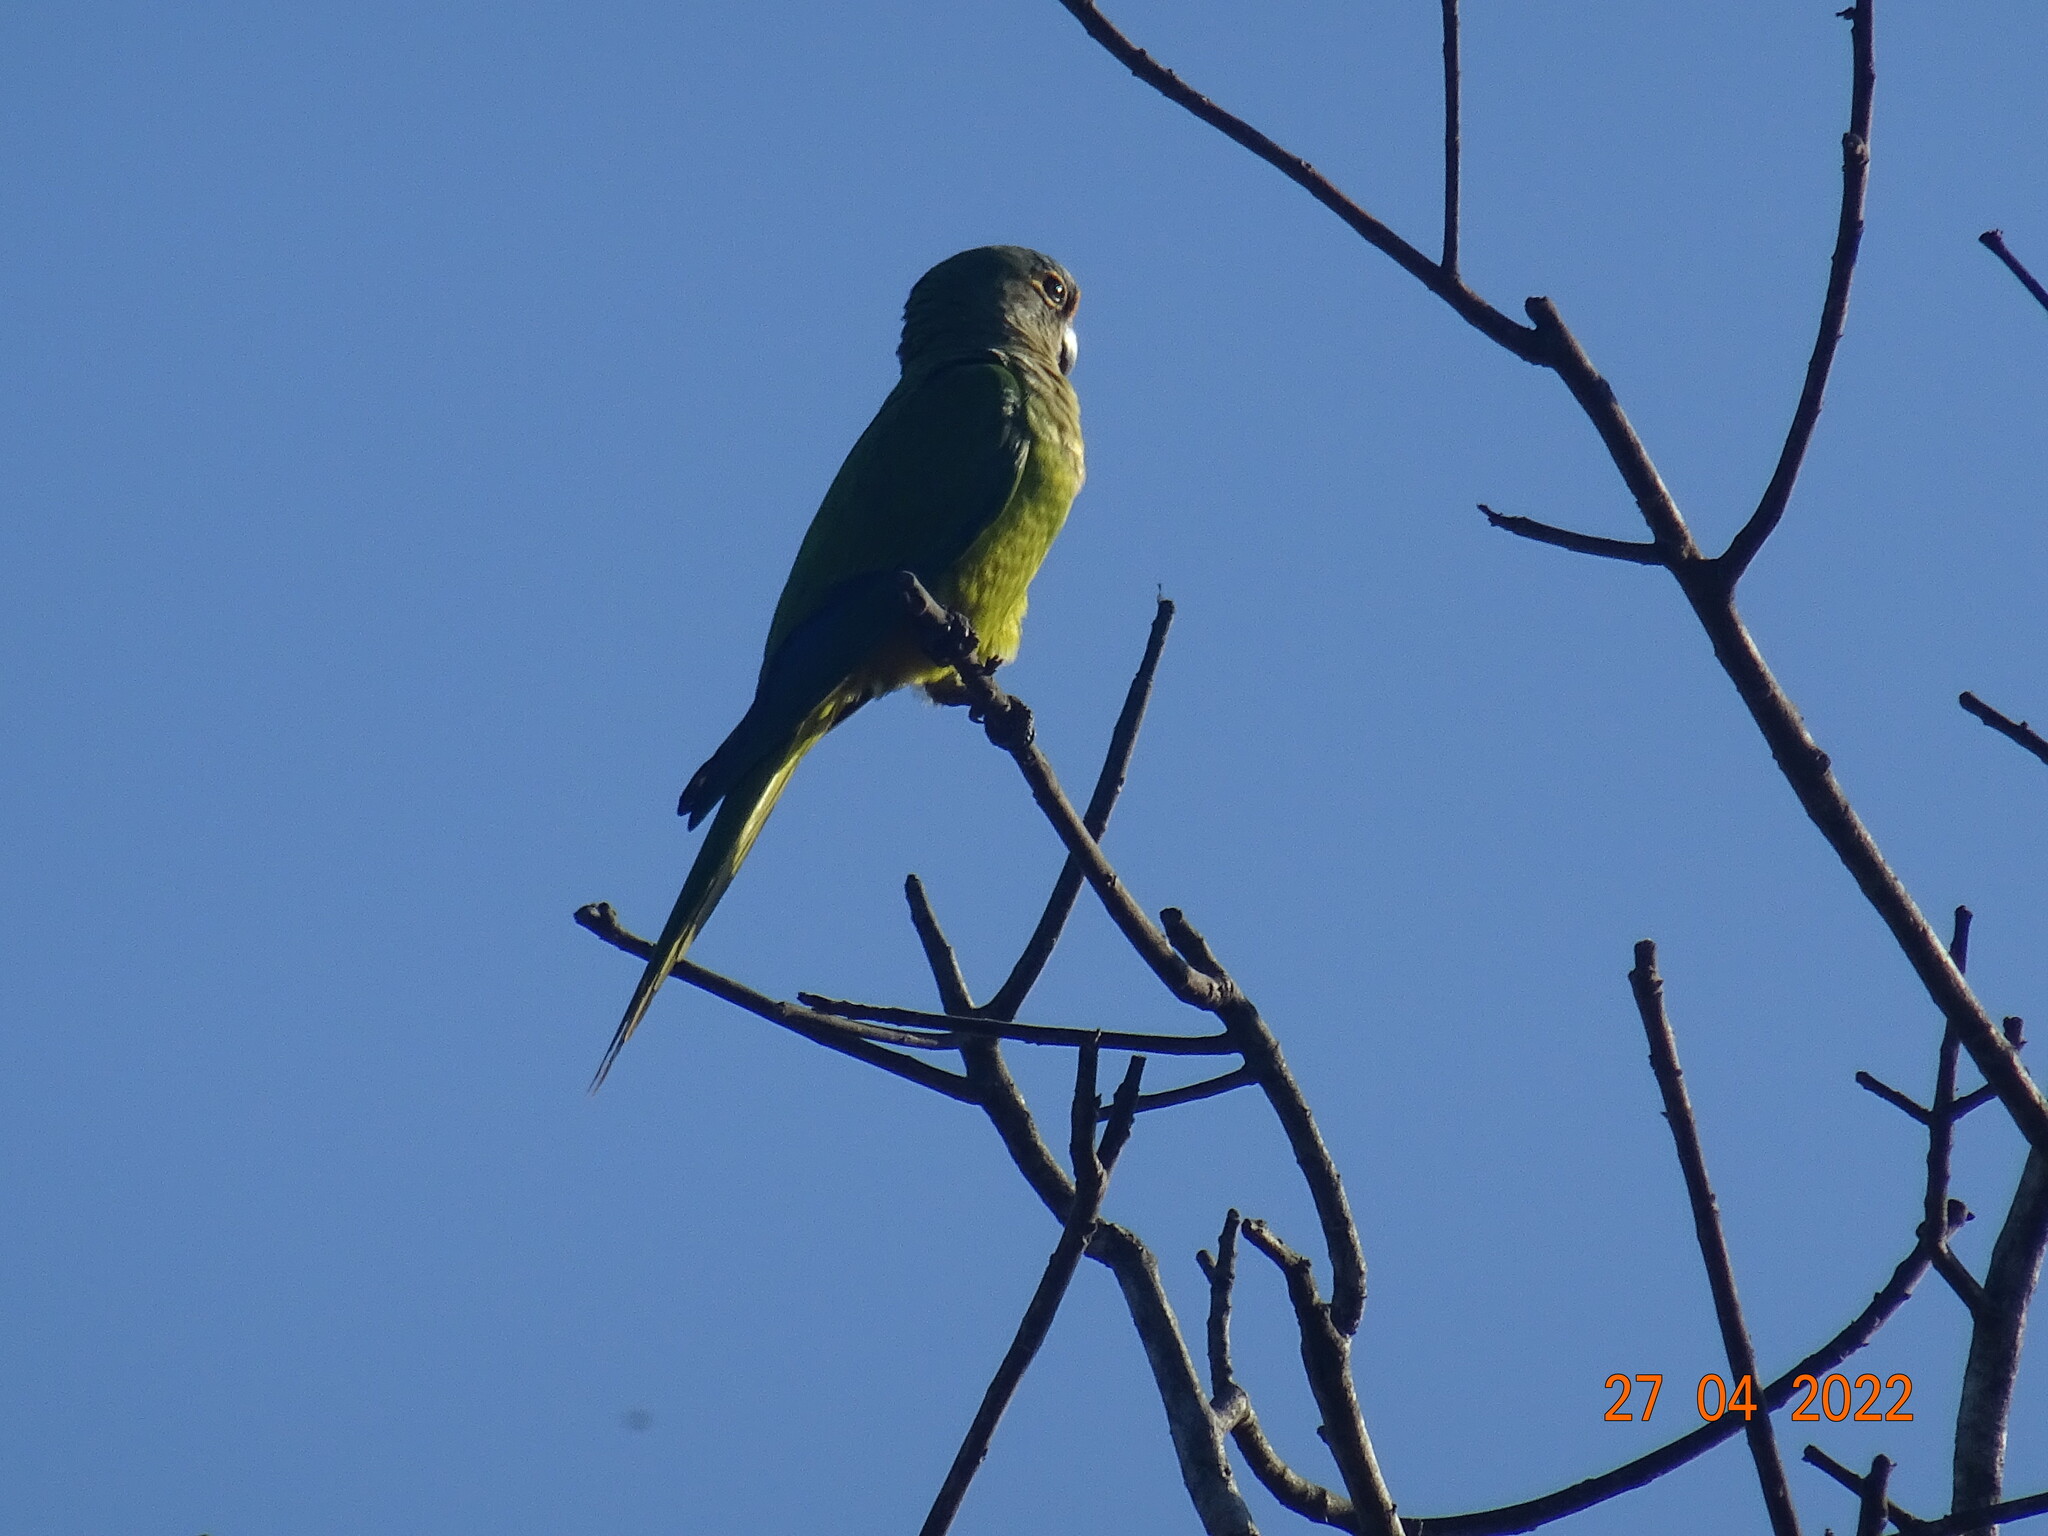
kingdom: Animalia
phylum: Chordata
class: Aves
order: Psittaciformes
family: Psittacidae
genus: Aratinga
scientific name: Aratinga aurea
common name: Peach-fronted parakeet
